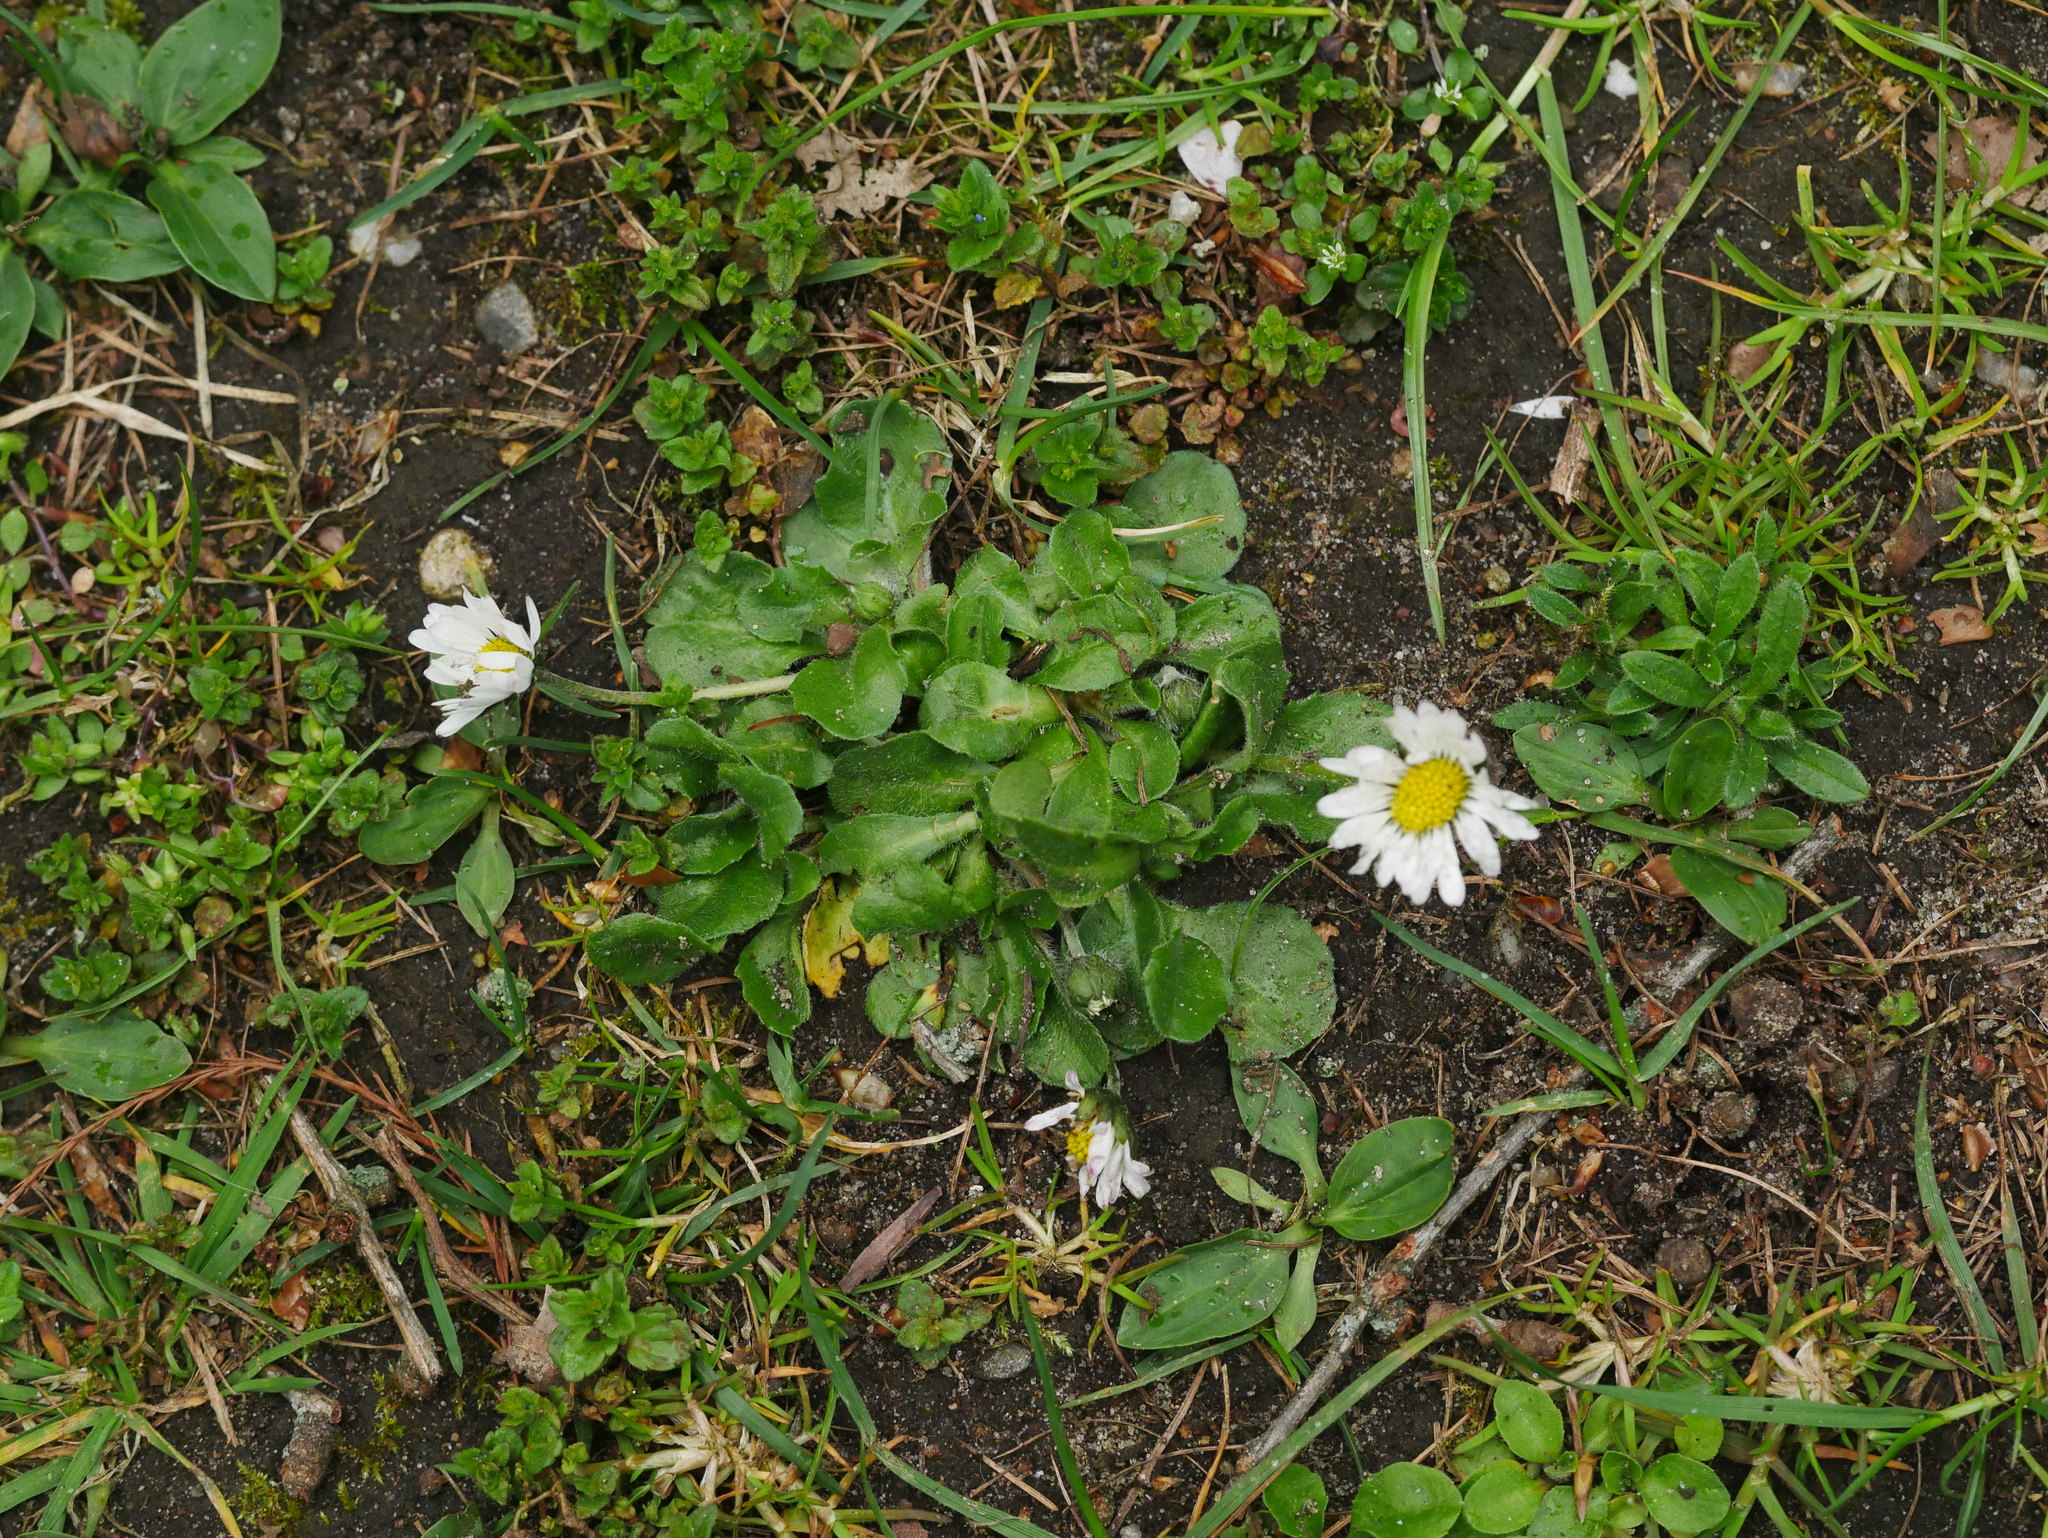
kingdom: Plantae
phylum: Tracheophyta
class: Magnoliopsida
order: Asterales
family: Asteraceae
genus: Bellis
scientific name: Bellis perennis
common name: Lawndaisy
